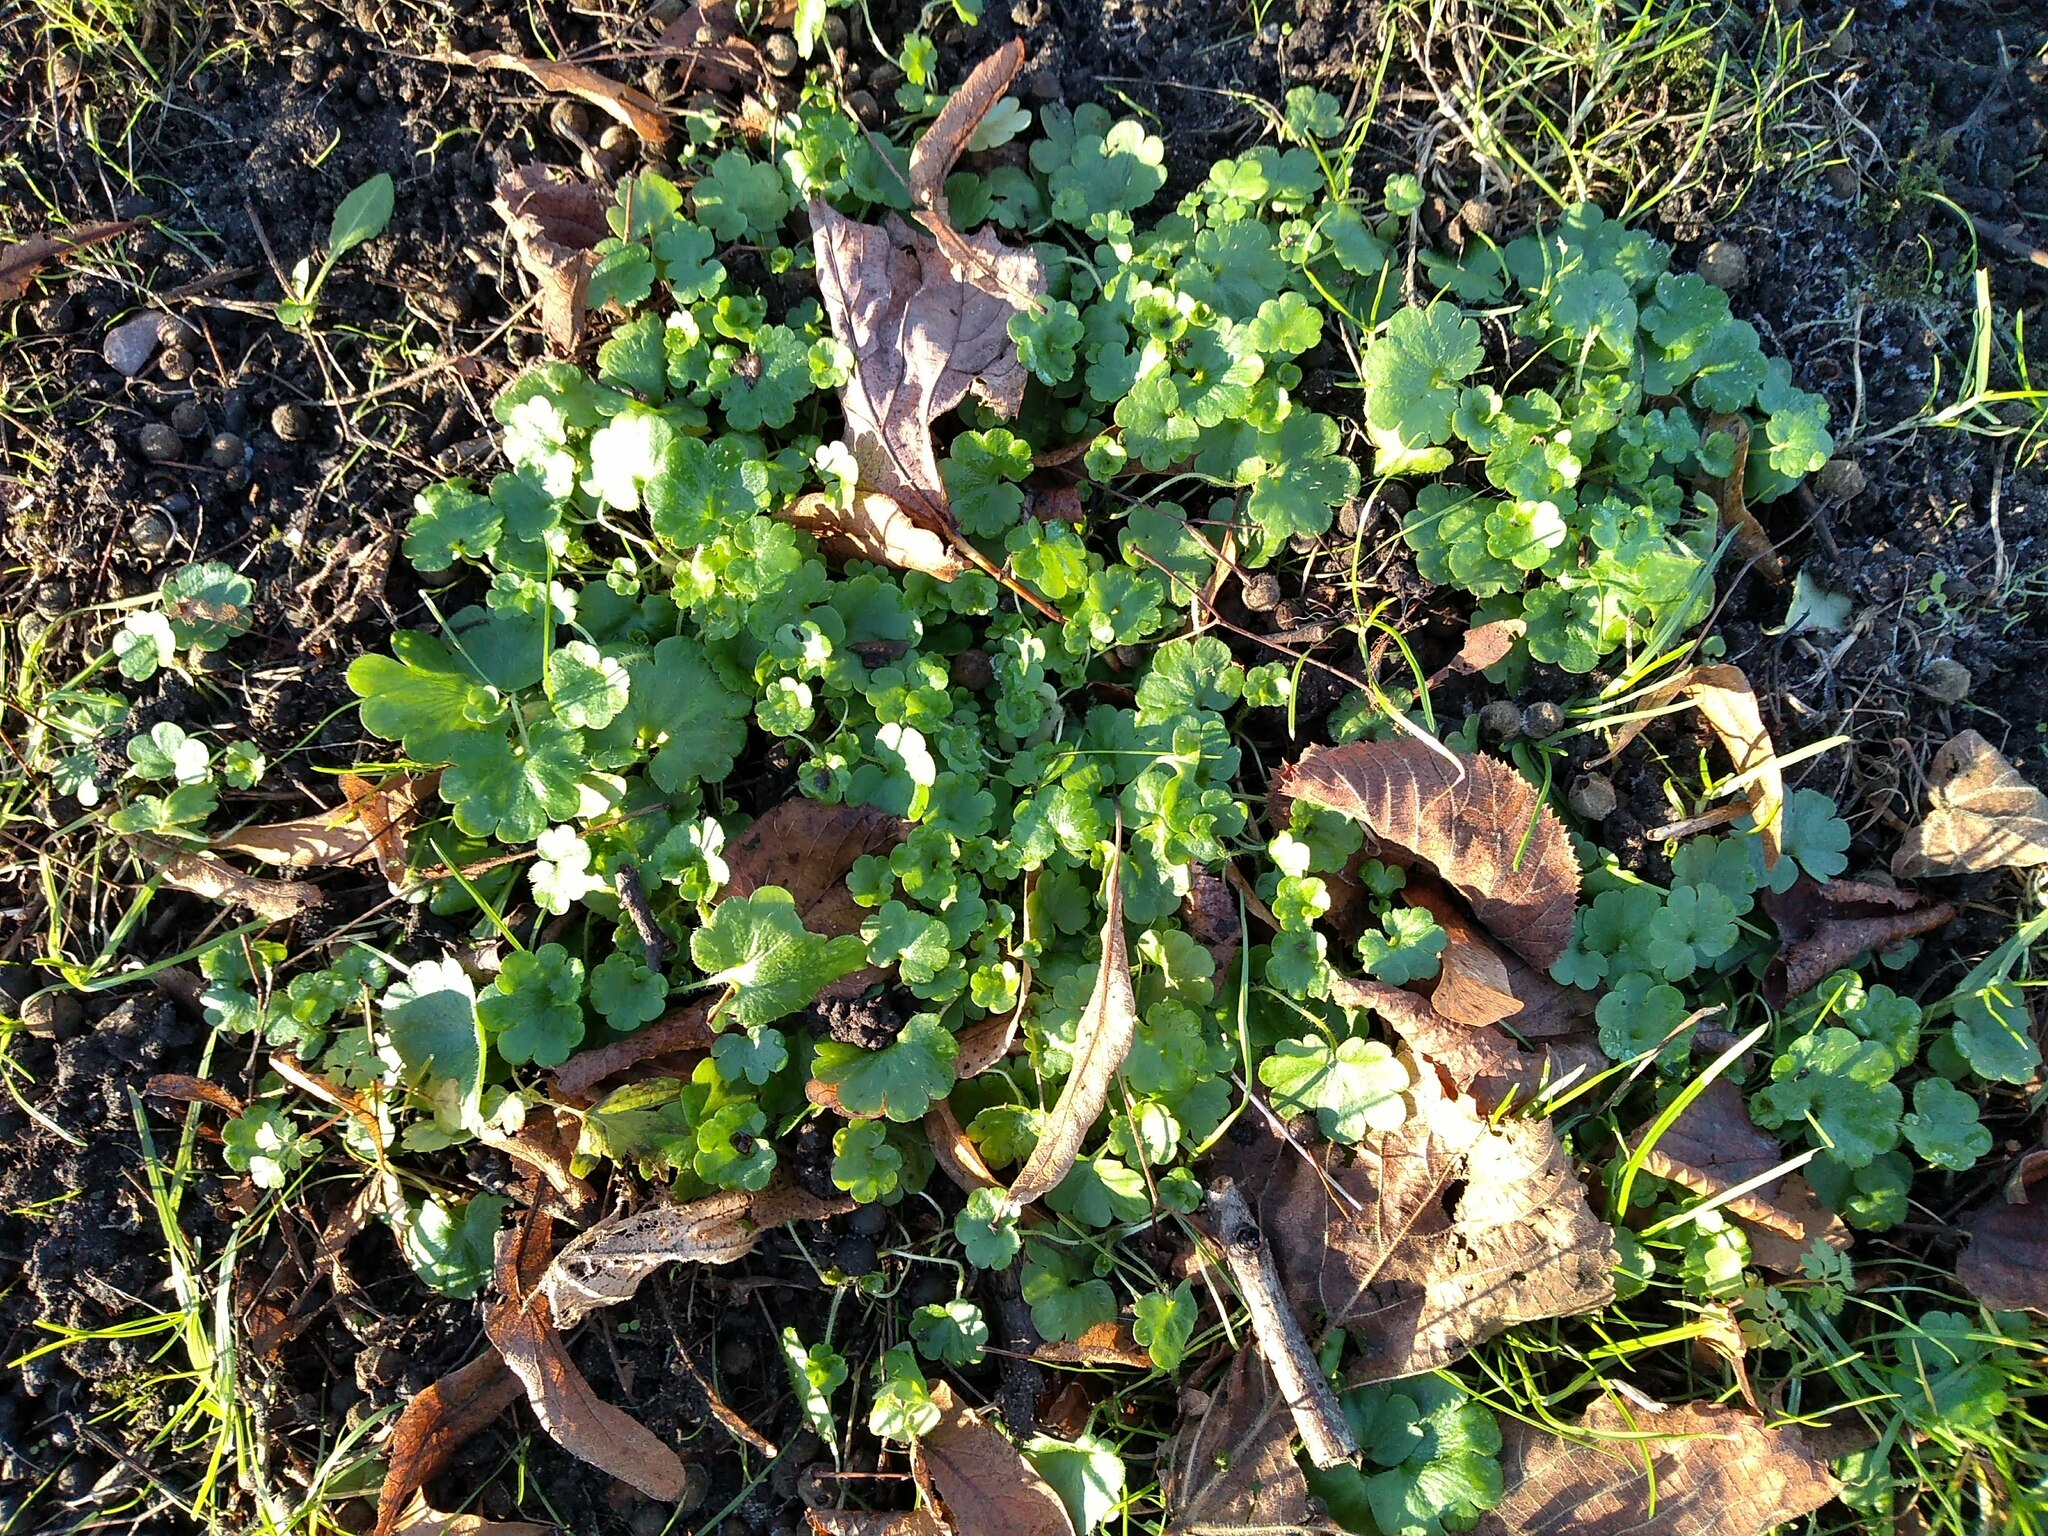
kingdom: Plantae
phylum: Tracheophyta
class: Magnoliopsida
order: Saxifragales
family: Saxifragaceae
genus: Saxifraga
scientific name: Saxifraga granulata
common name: Meadow saxifrage
